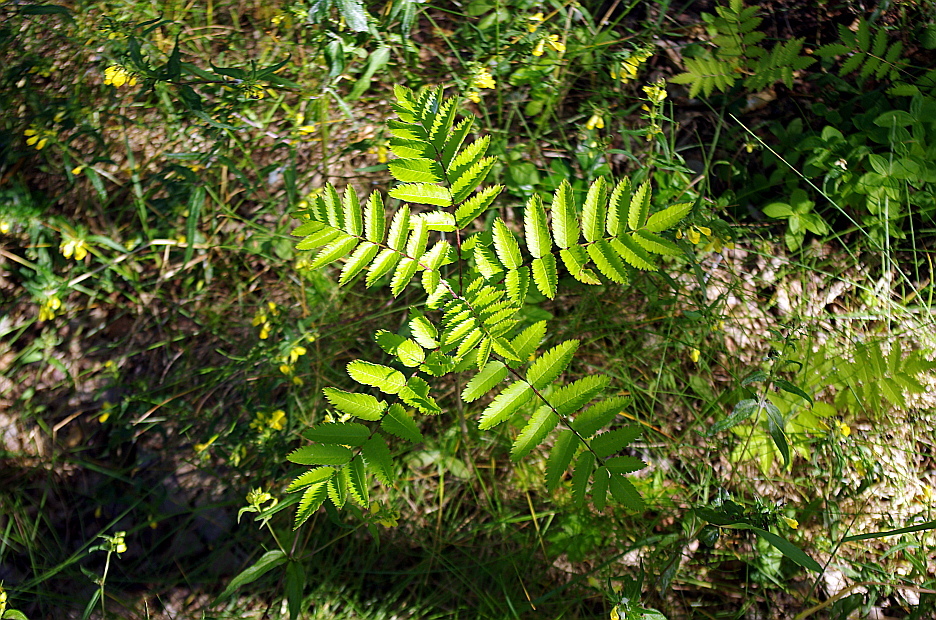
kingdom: Plantae
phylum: Tracheophyta
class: Magnoliopsida
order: Rosales
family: Rosaceae
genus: Sorbus
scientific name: Sorbus aucuparia
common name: Rowan
